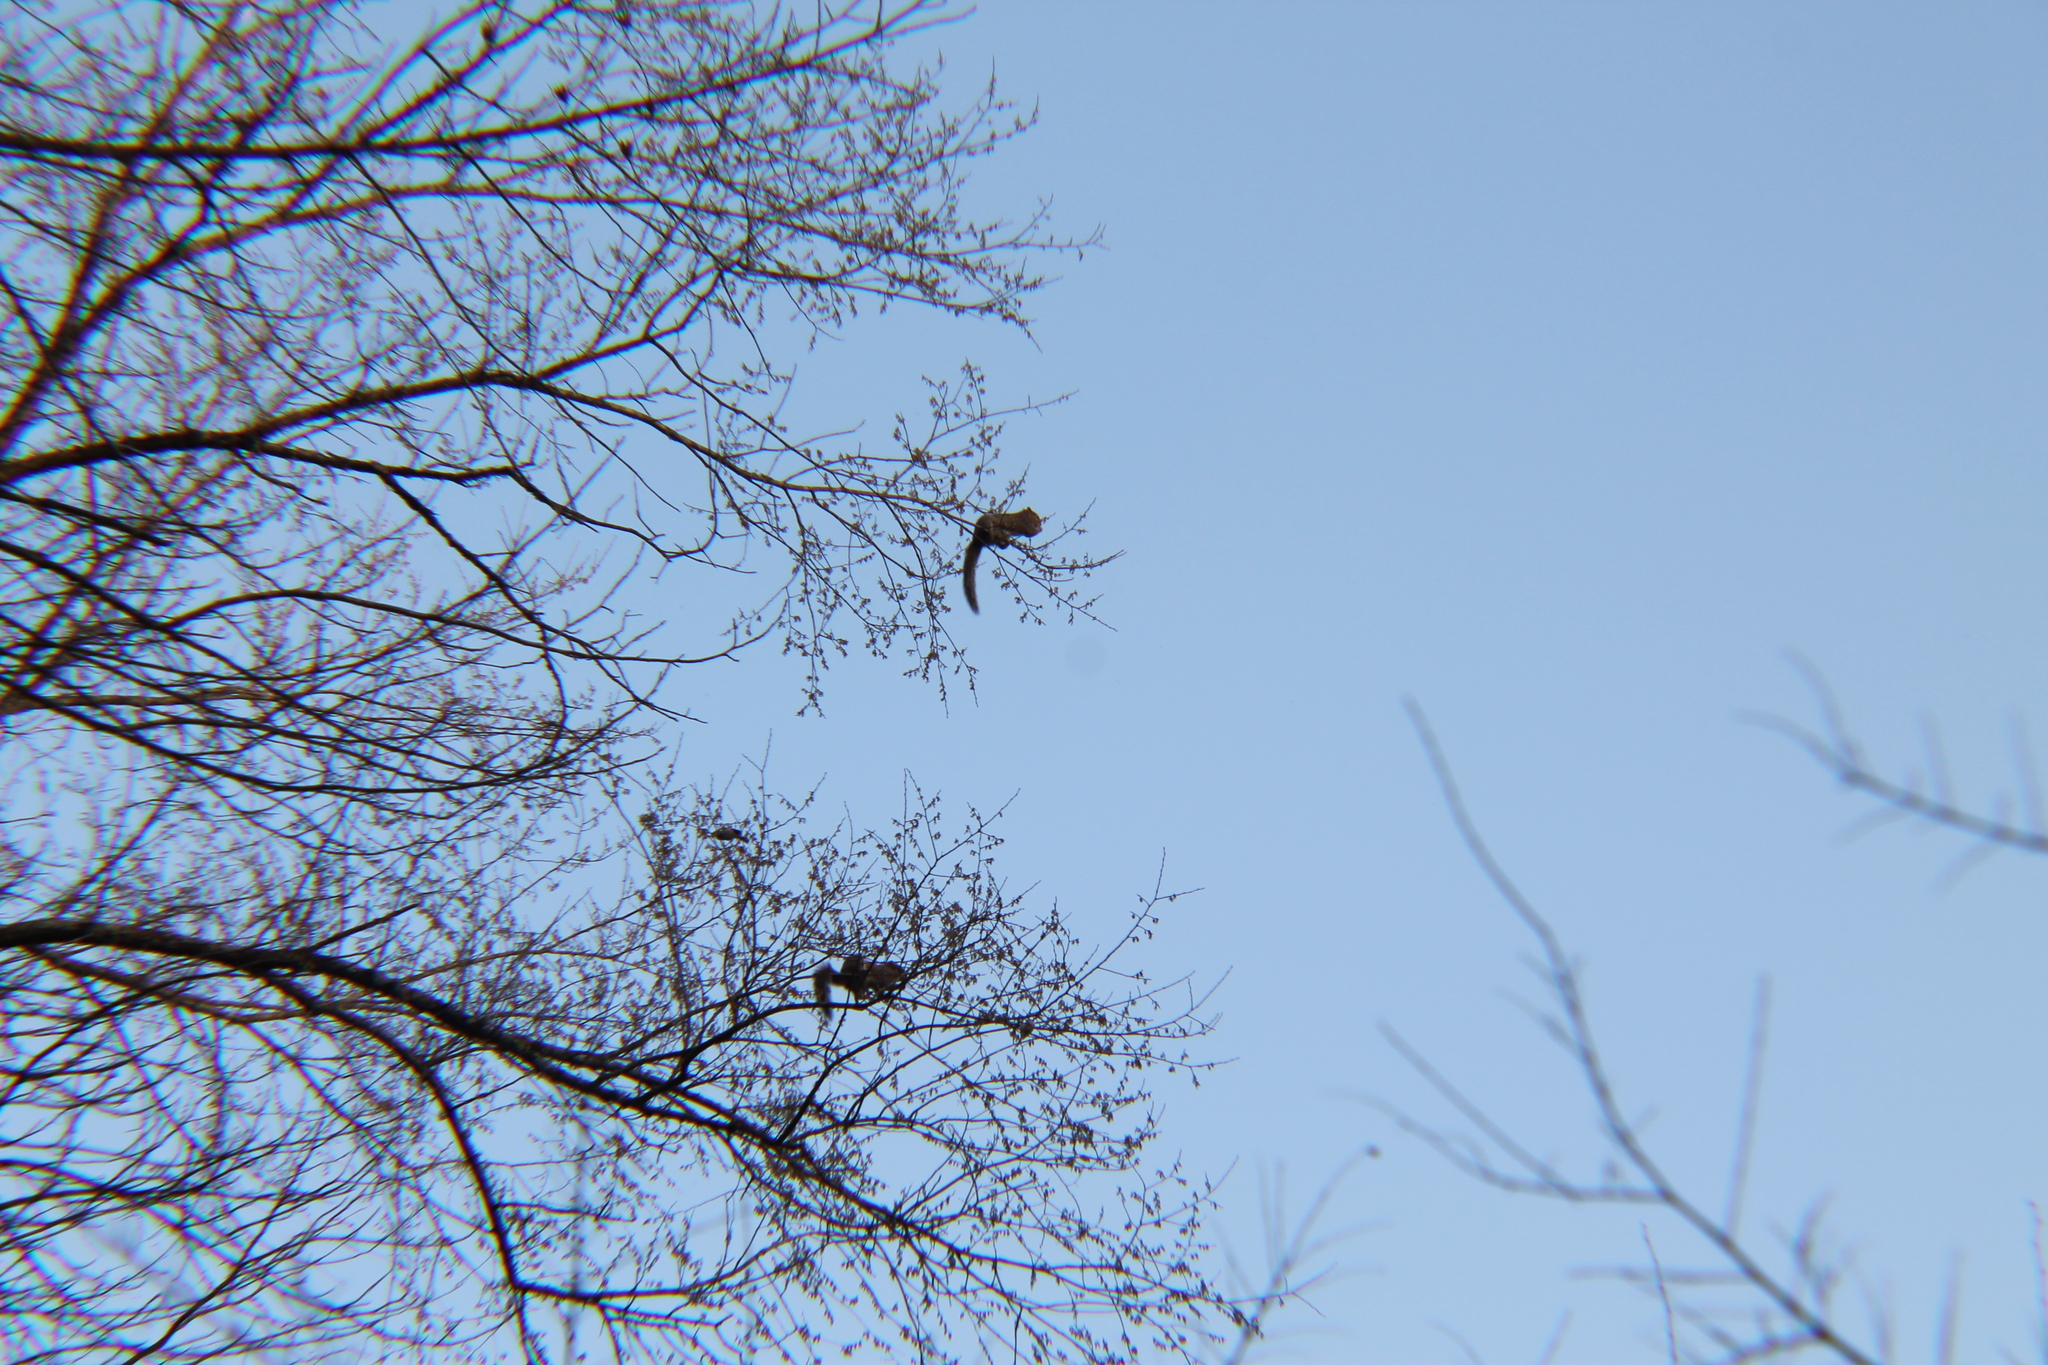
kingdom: Animalia
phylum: Chordata
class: Mammalia
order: Rodentia
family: Sciuridae
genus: Sciurus
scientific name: Sciurus carolinensis
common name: Eastern gray squirrel
